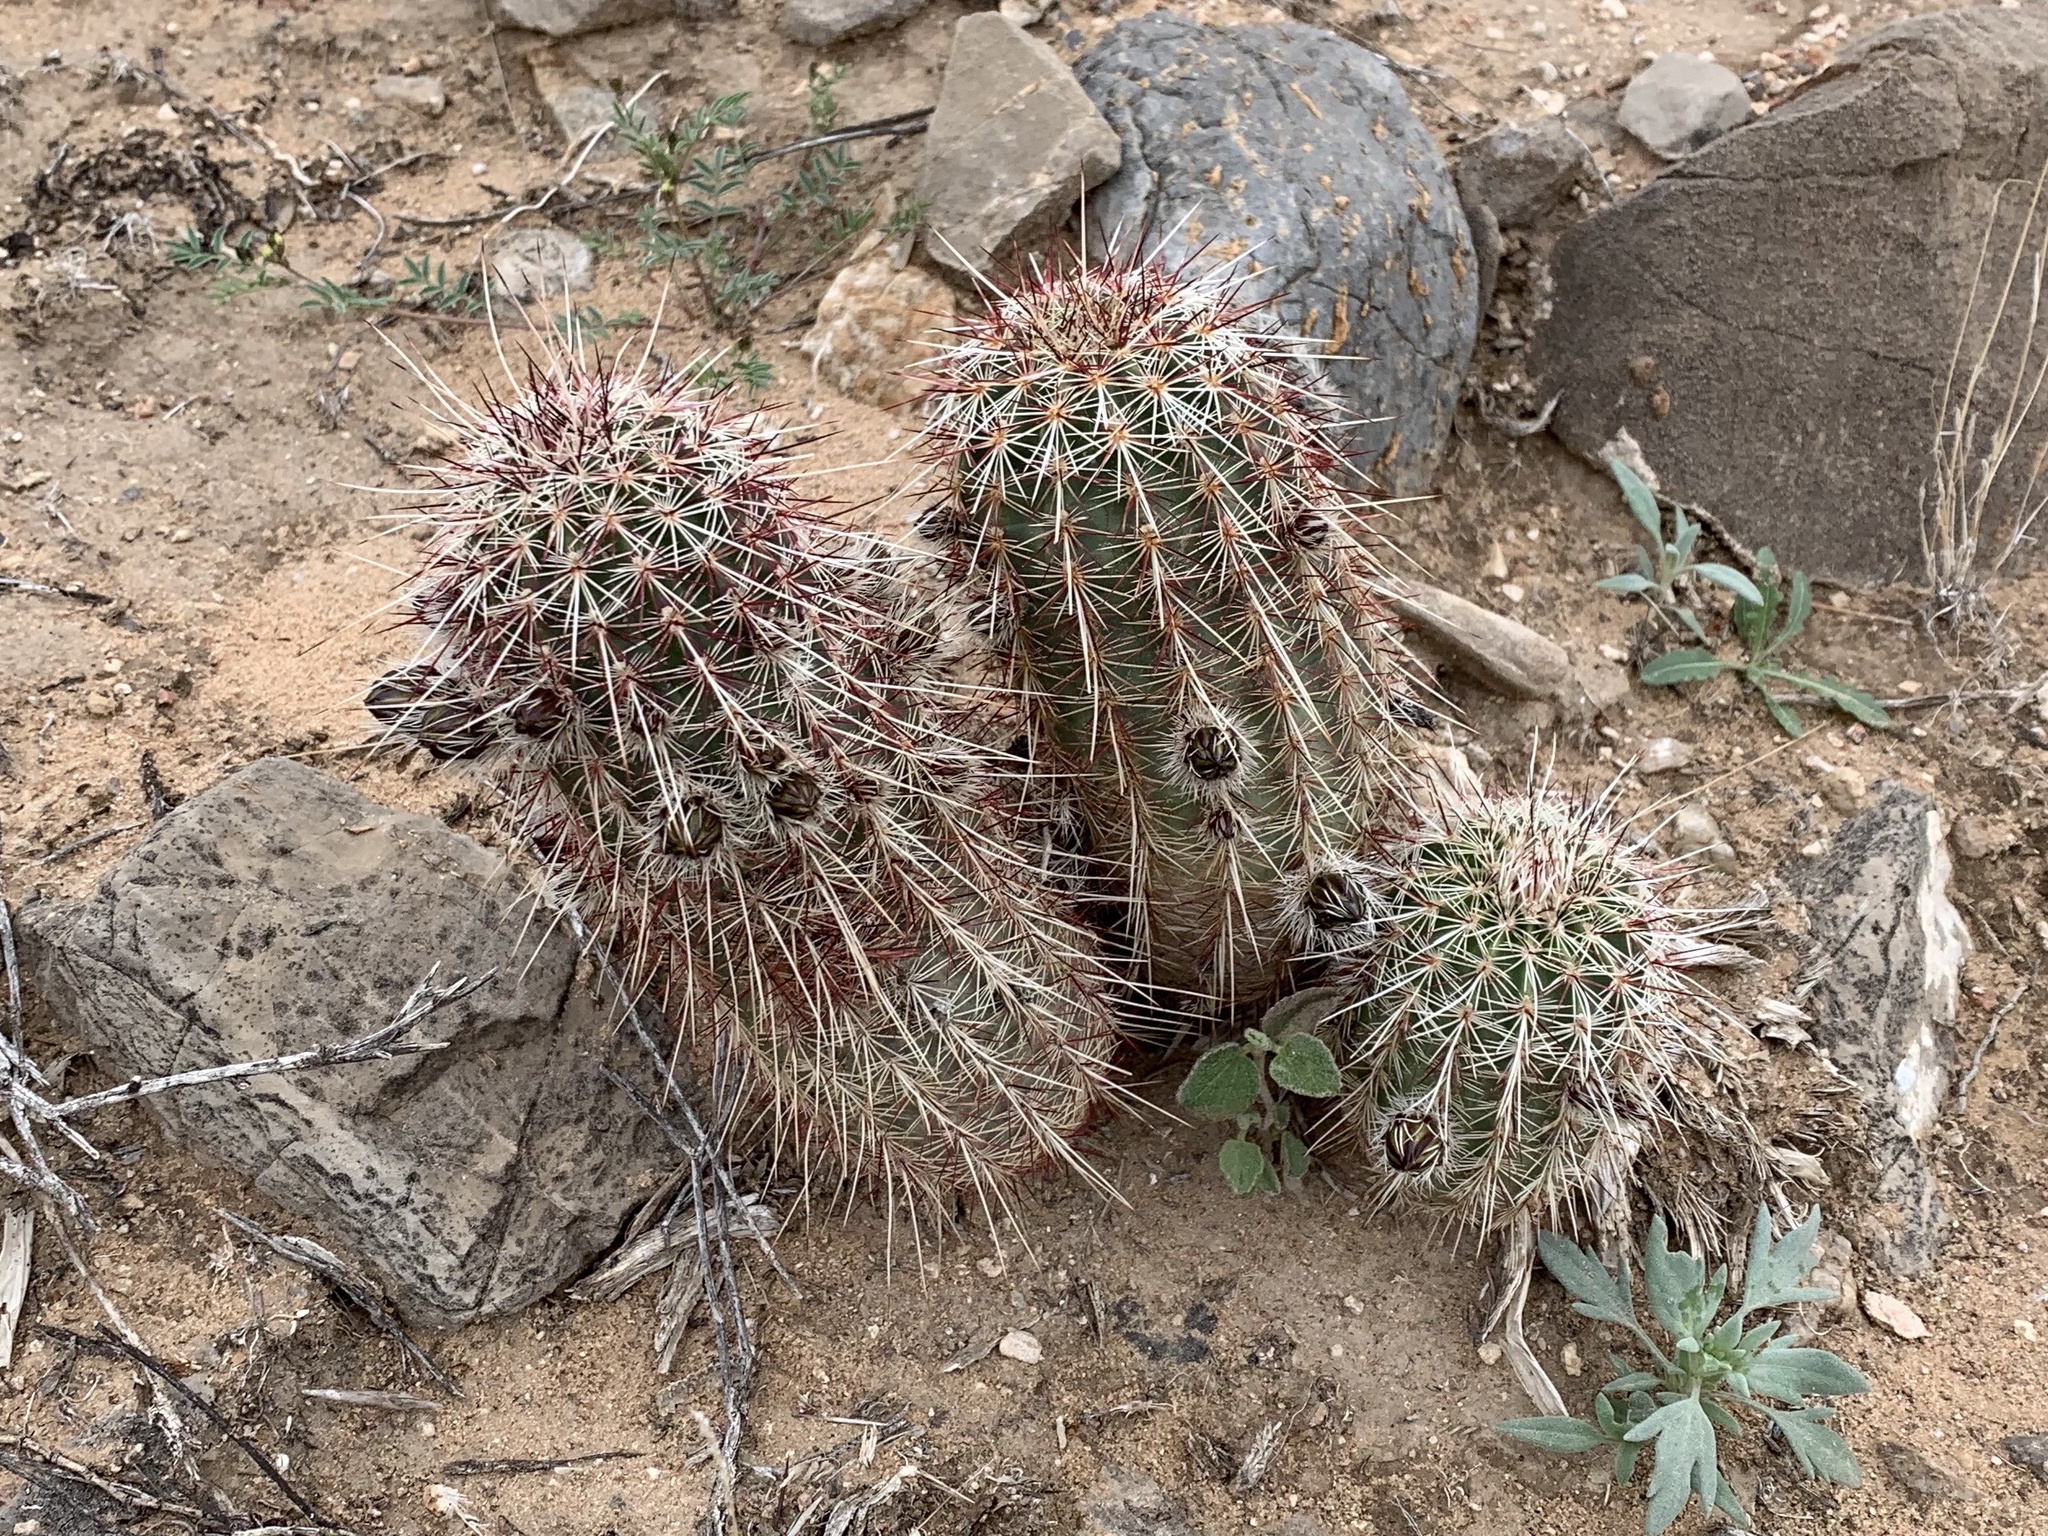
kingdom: Plantae
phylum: Tracheophyta
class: Magnoliopsida
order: Caryophyllales
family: Cactaceae
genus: Echinocereus
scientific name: Echinocereus viridiflorus
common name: Nylon hedgehog cactus
